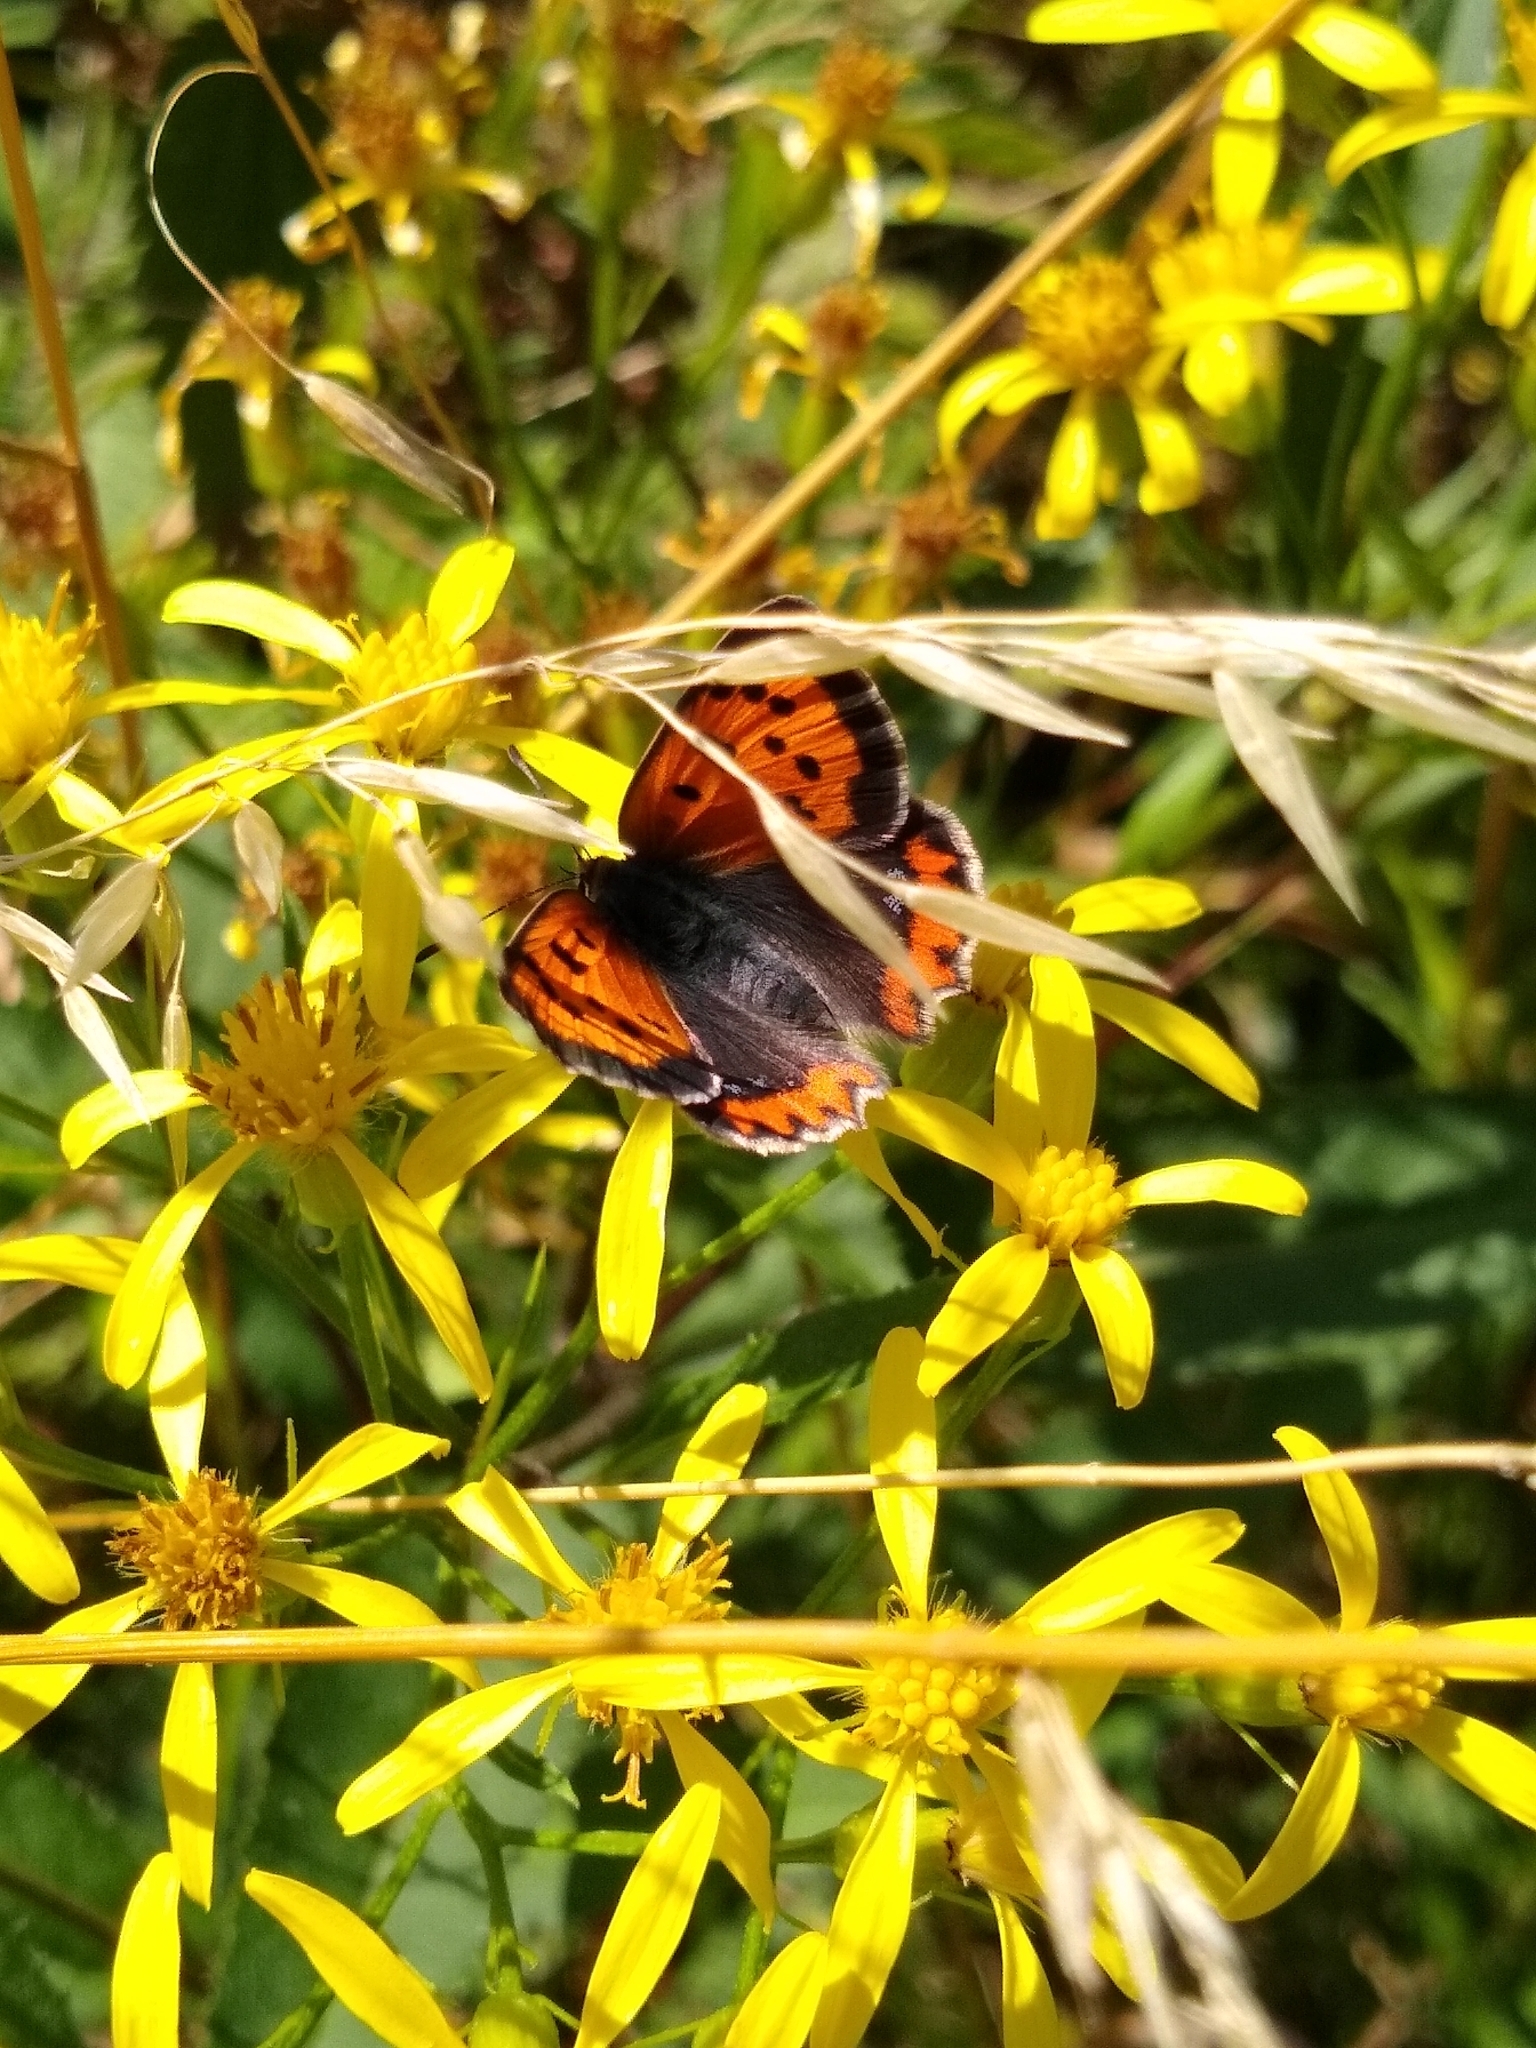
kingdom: Animalia
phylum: Arthropoda
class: Insecta
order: Lepidoptera
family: Lycaenidae
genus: Lycaena
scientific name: Lycaena phlaeas
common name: Small copper
